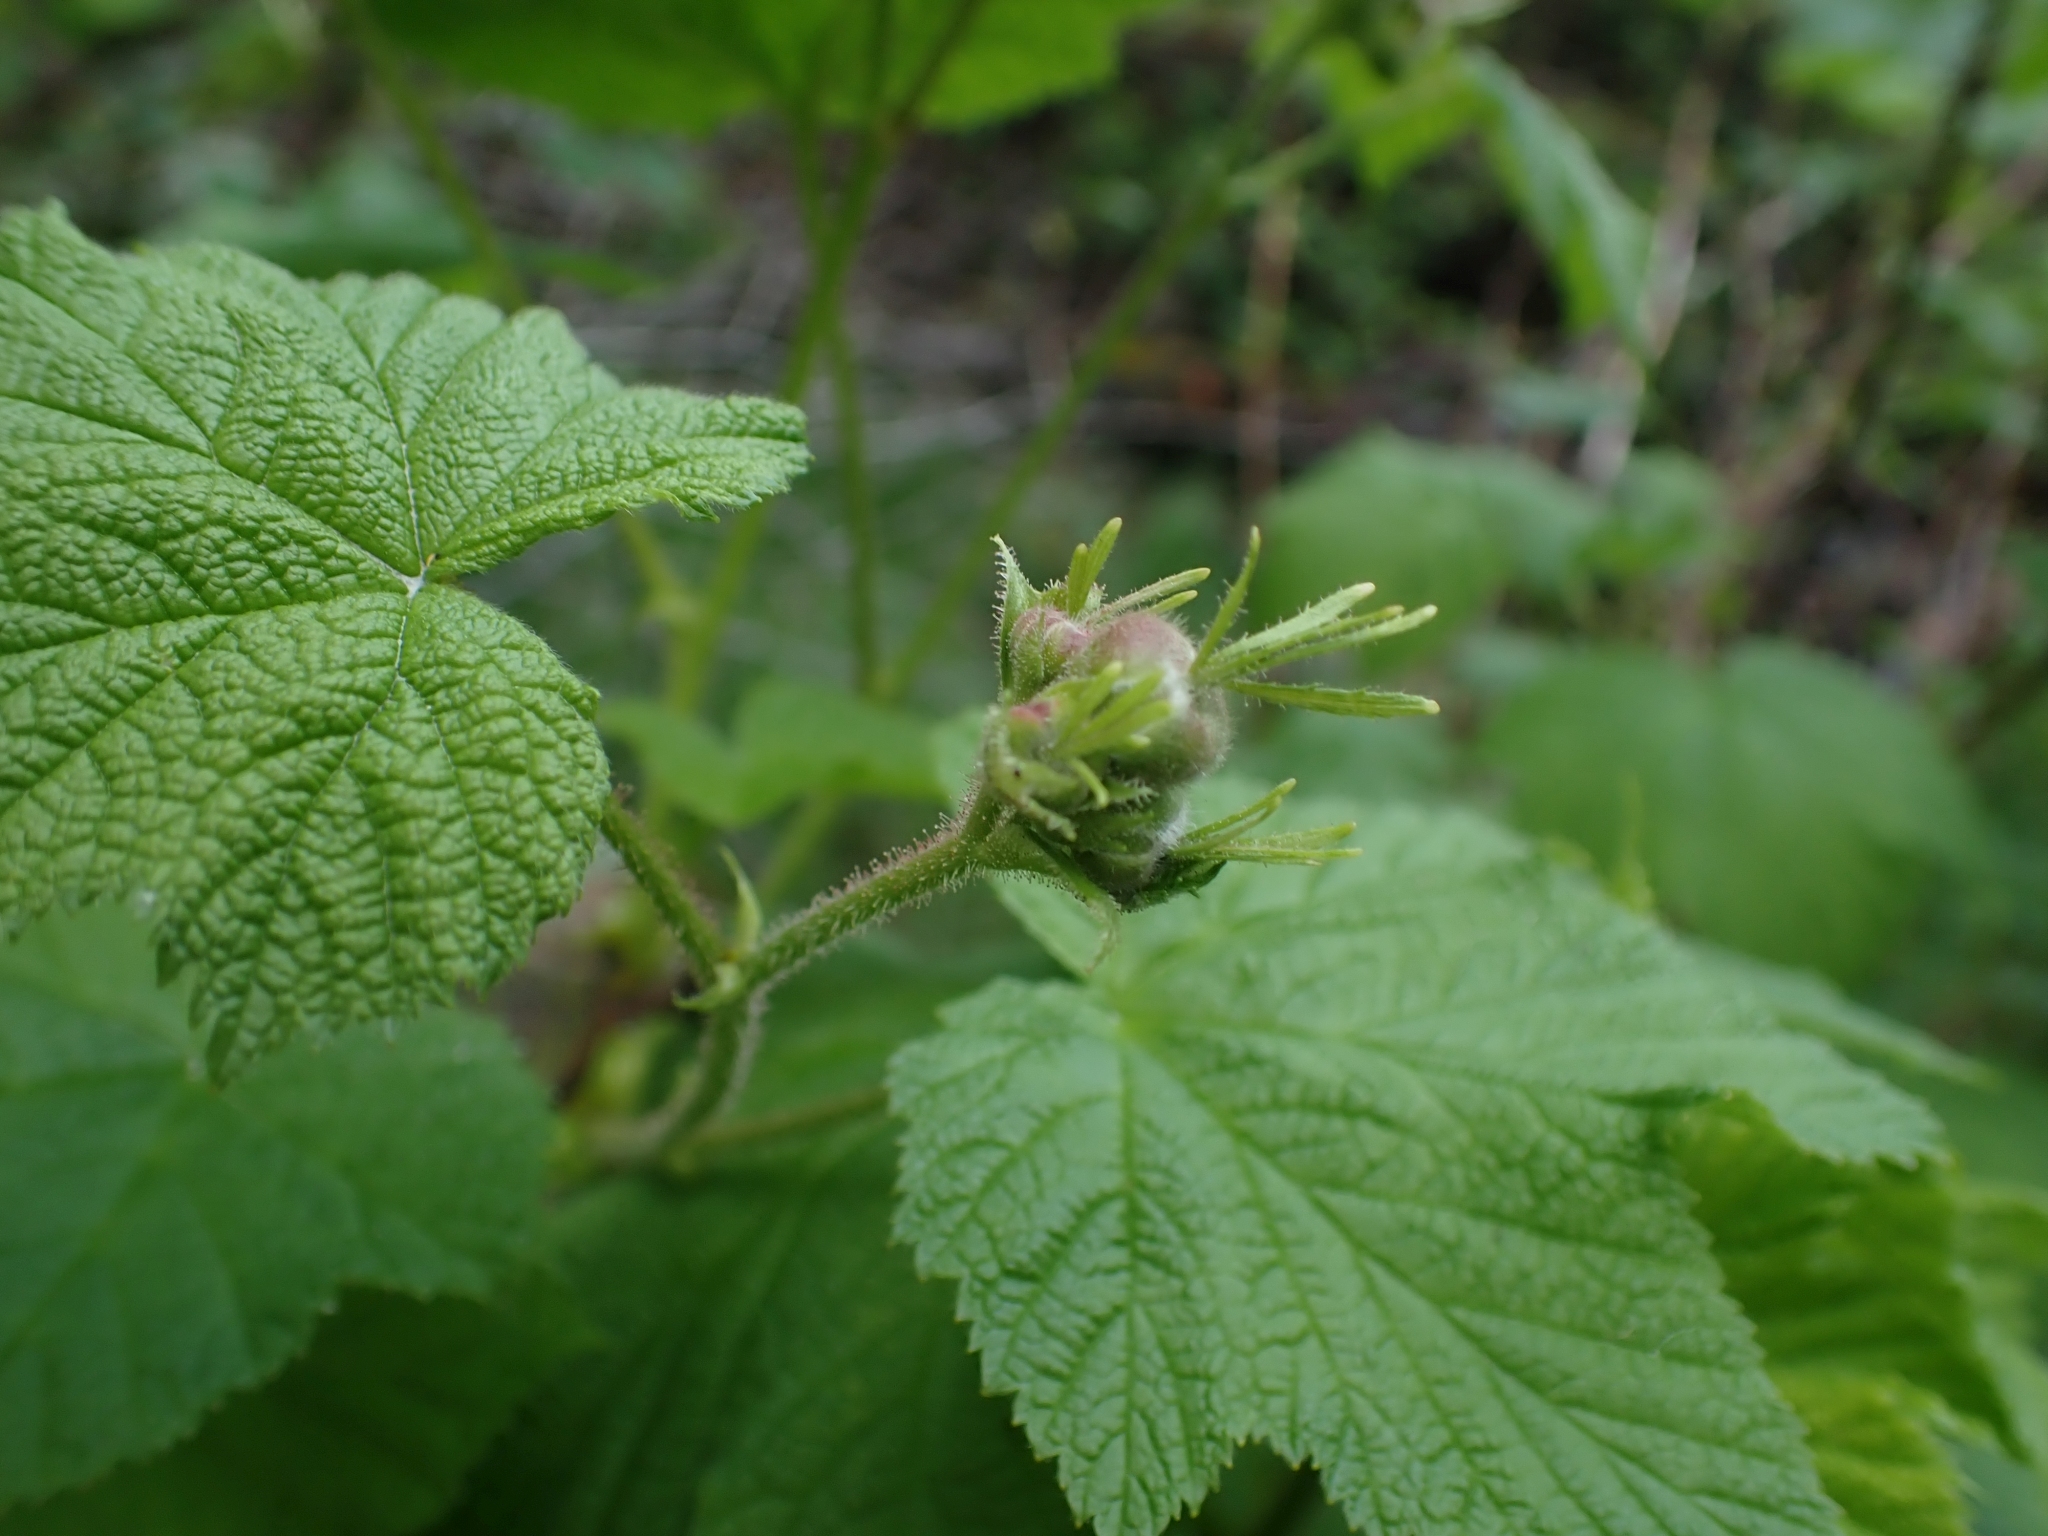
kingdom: Plantae
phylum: Tracheophyta
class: Magnoliopsida
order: Rosales
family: Rosaceae
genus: Rubus
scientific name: Rubus parviflorus
